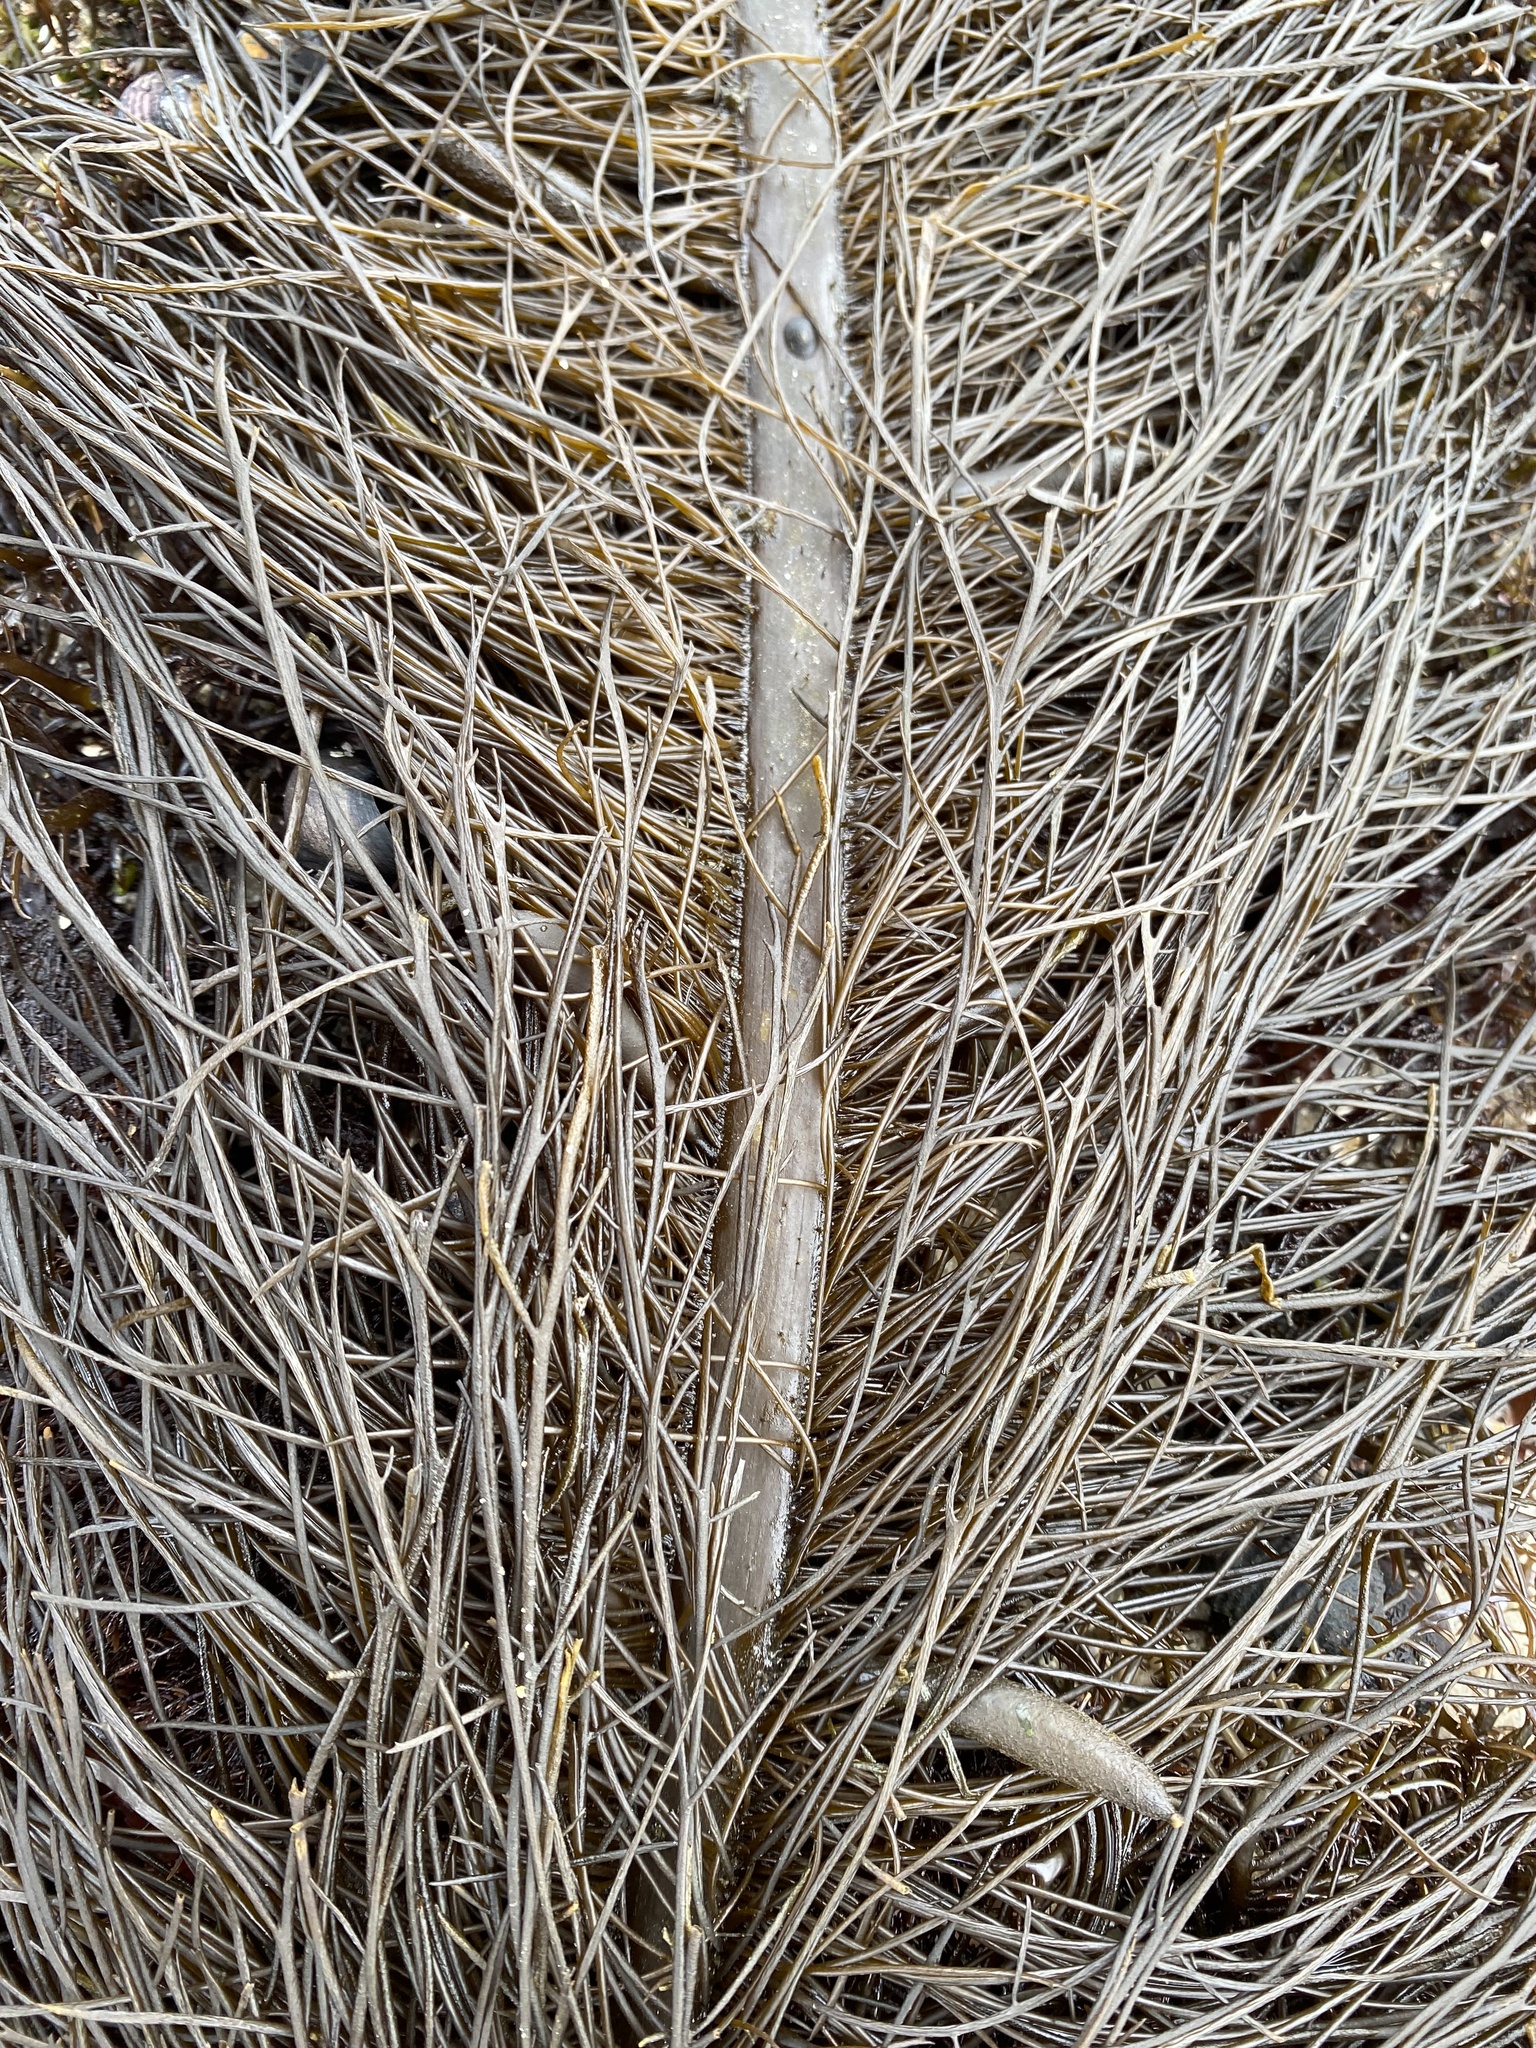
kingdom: Chromista
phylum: Ochrophyta
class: Phaeophyceae
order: Laminariales
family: Lessoniaceae
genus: Egregia
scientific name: Egregia menziesii
